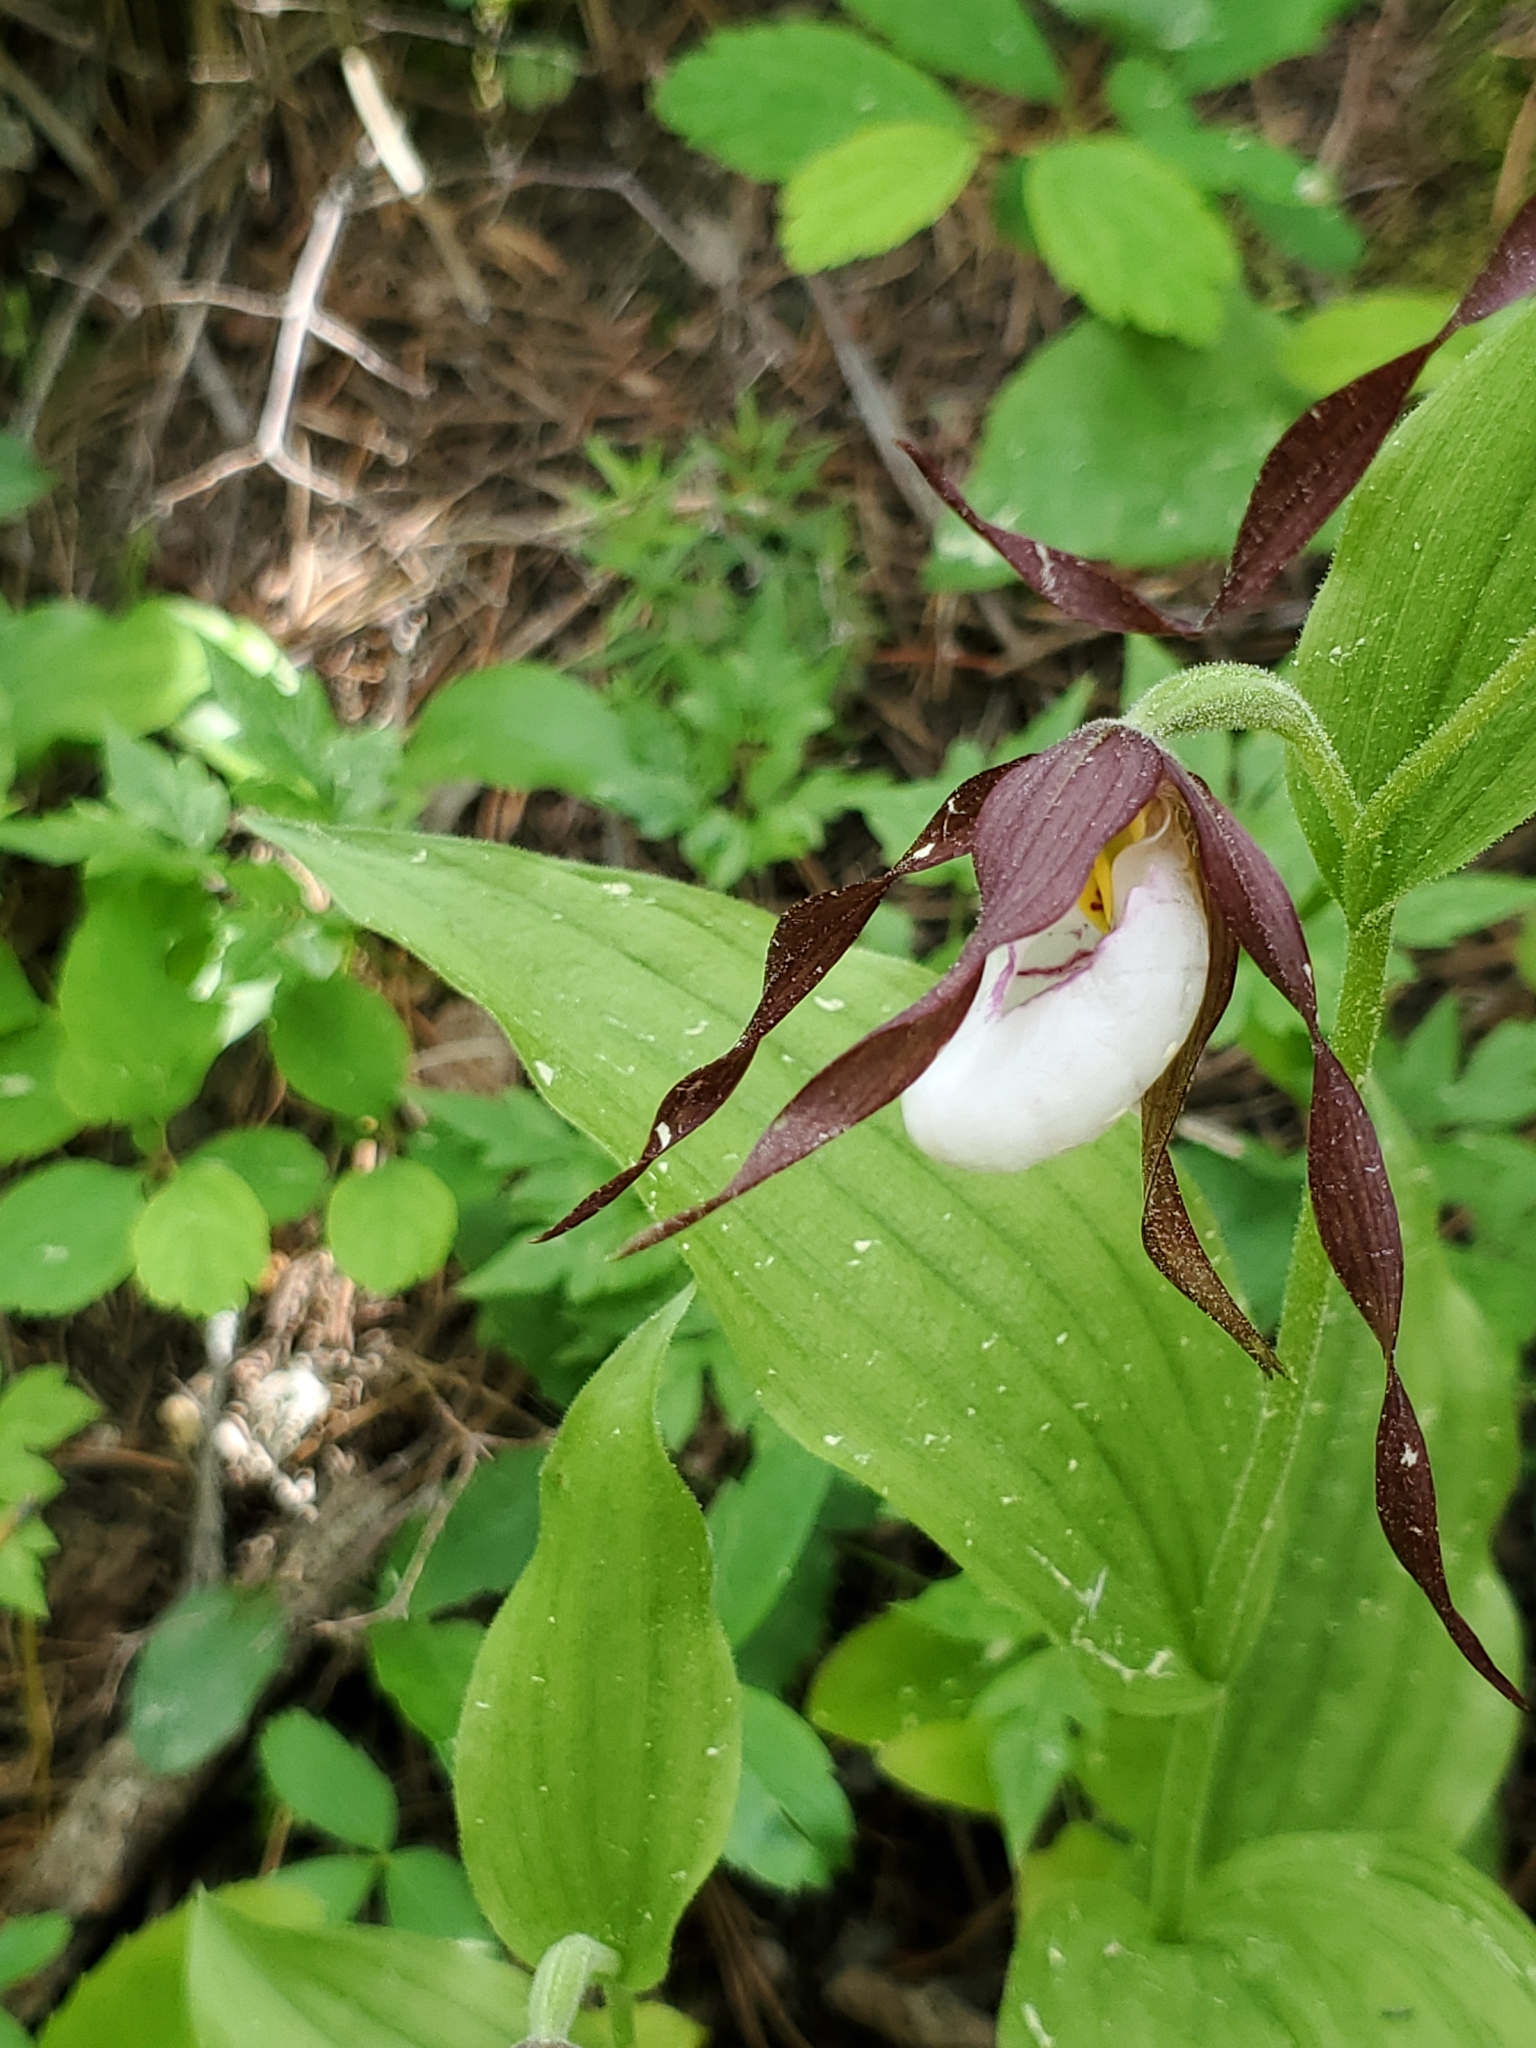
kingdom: Plantae
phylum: Tracheophyta
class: Liliopsida
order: Asparagales
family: Orchidaceae
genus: Cypripedium
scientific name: Cypripedium montanum
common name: Mountain lady's-slipper
